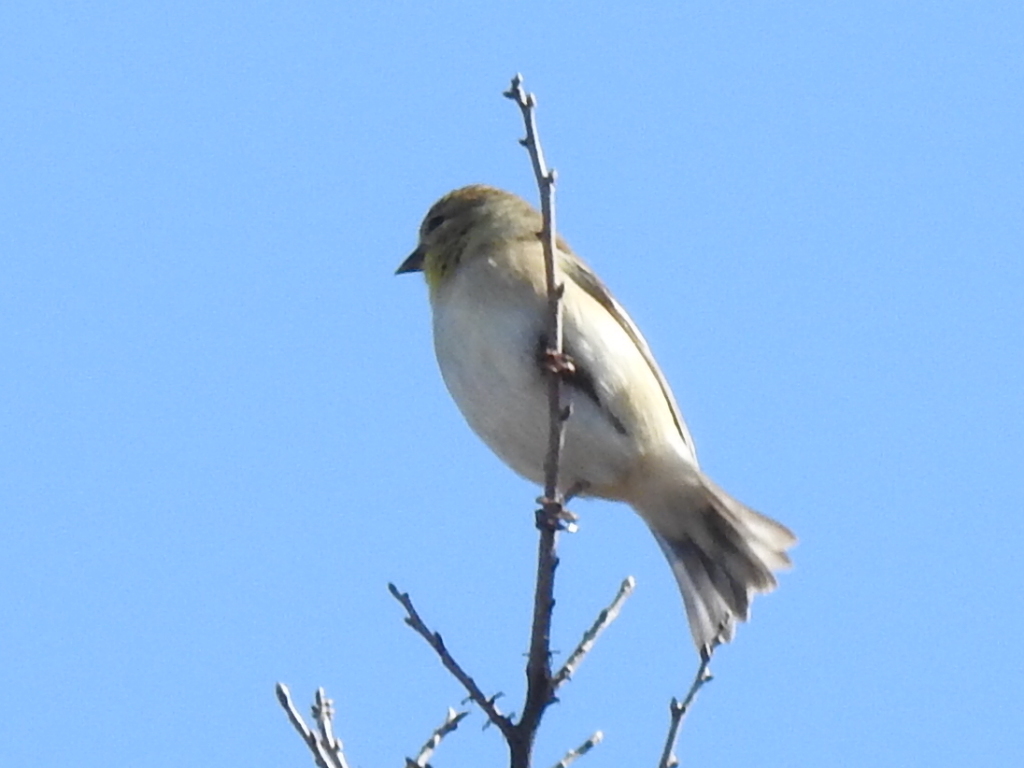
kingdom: Animalia
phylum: Chordata
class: Aves
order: Passeriformes
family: Fringillidae
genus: Spinus
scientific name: Spinus tristis
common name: American goldfinch
